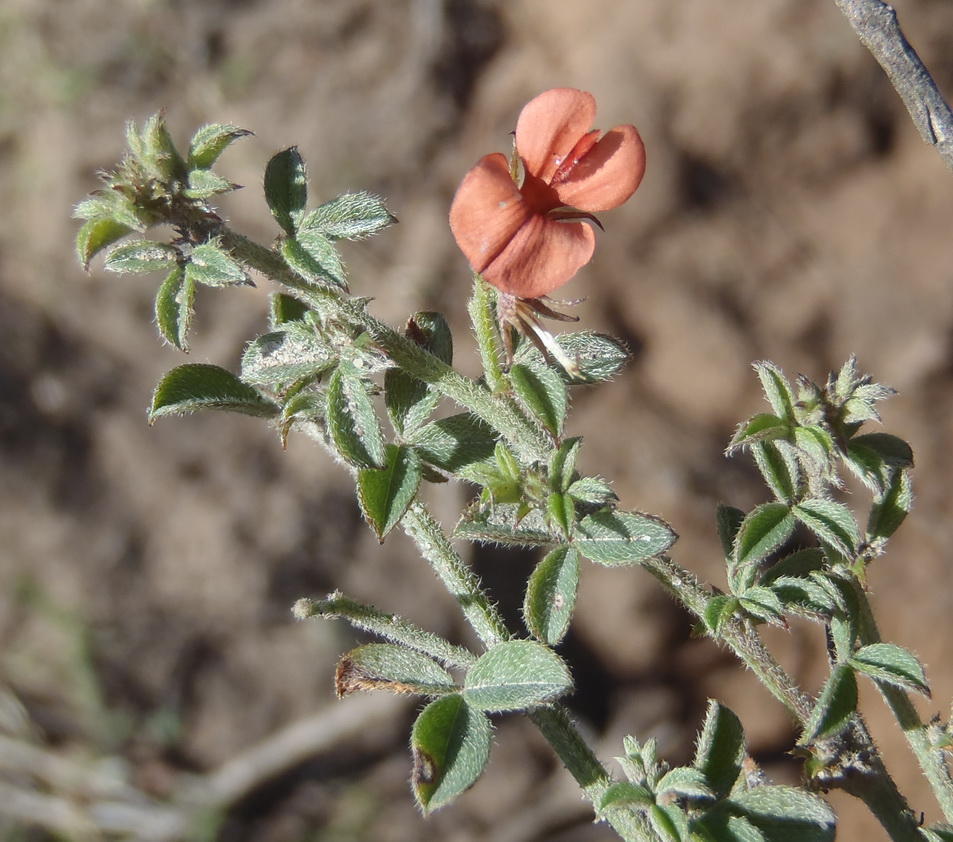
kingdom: Plantae
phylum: Tracheophyta
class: Magnoliopsida
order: Fabales
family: Fabaceae
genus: Indigofera
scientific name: Indigofera priorii
